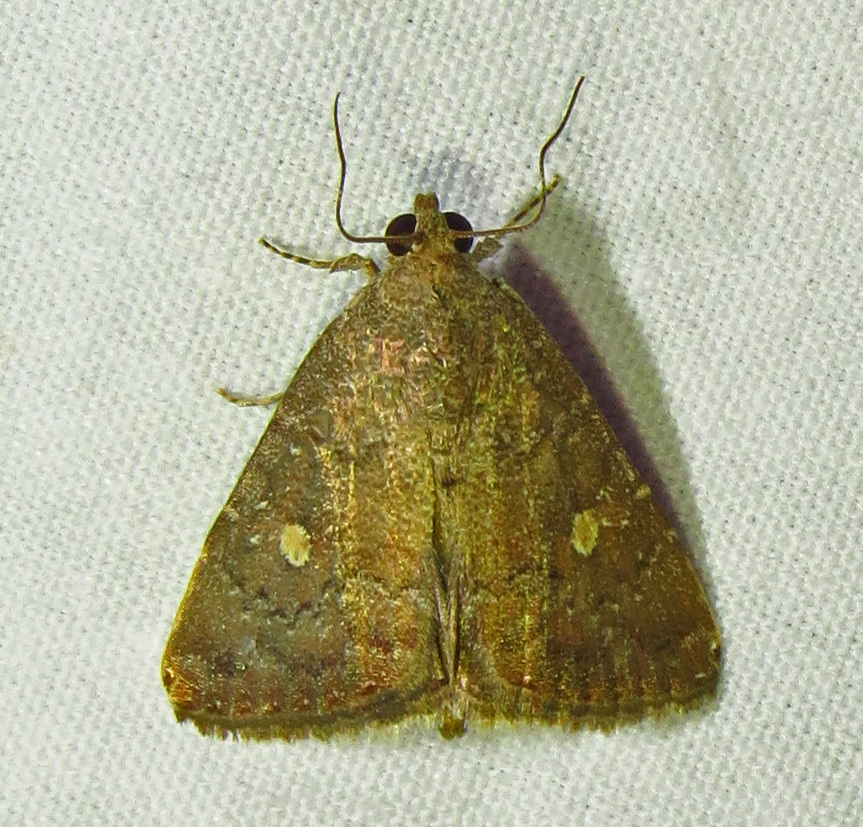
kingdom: Animalia
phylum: Arthropoda
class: Insecta
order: Lepidoptera
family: Noctuidae
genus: Amyna
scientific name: Amyna stricta
